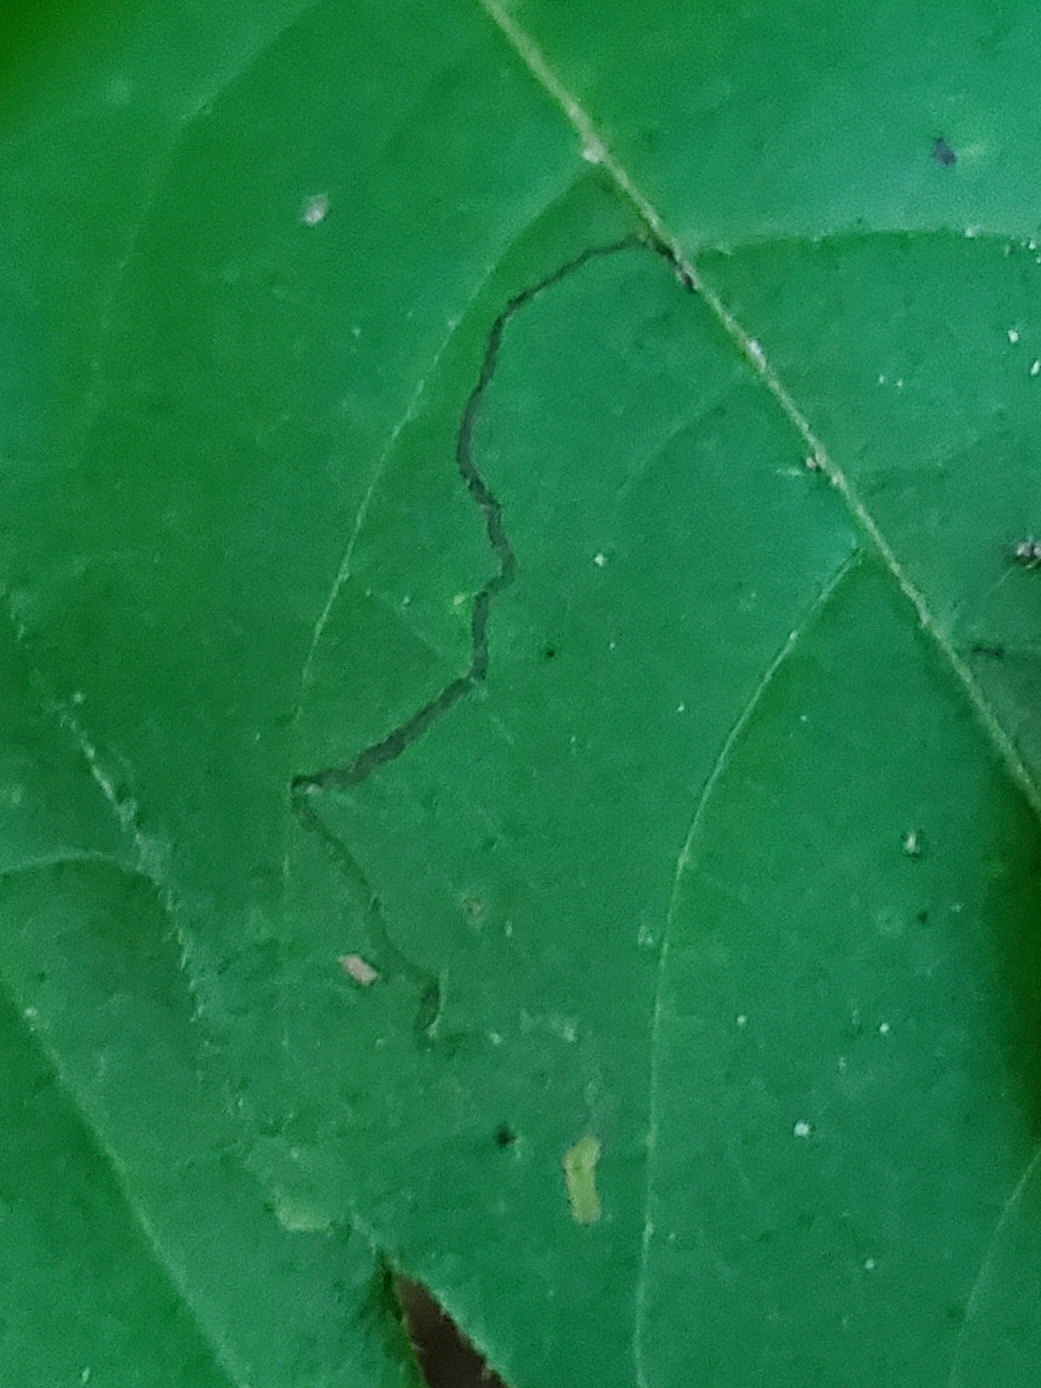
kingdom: Animalia
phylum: Arthropoda
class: Insecta
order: Lepidoptera
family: Nepticulidae
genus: Stigmella
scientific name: Stigmella rhoifoliella
